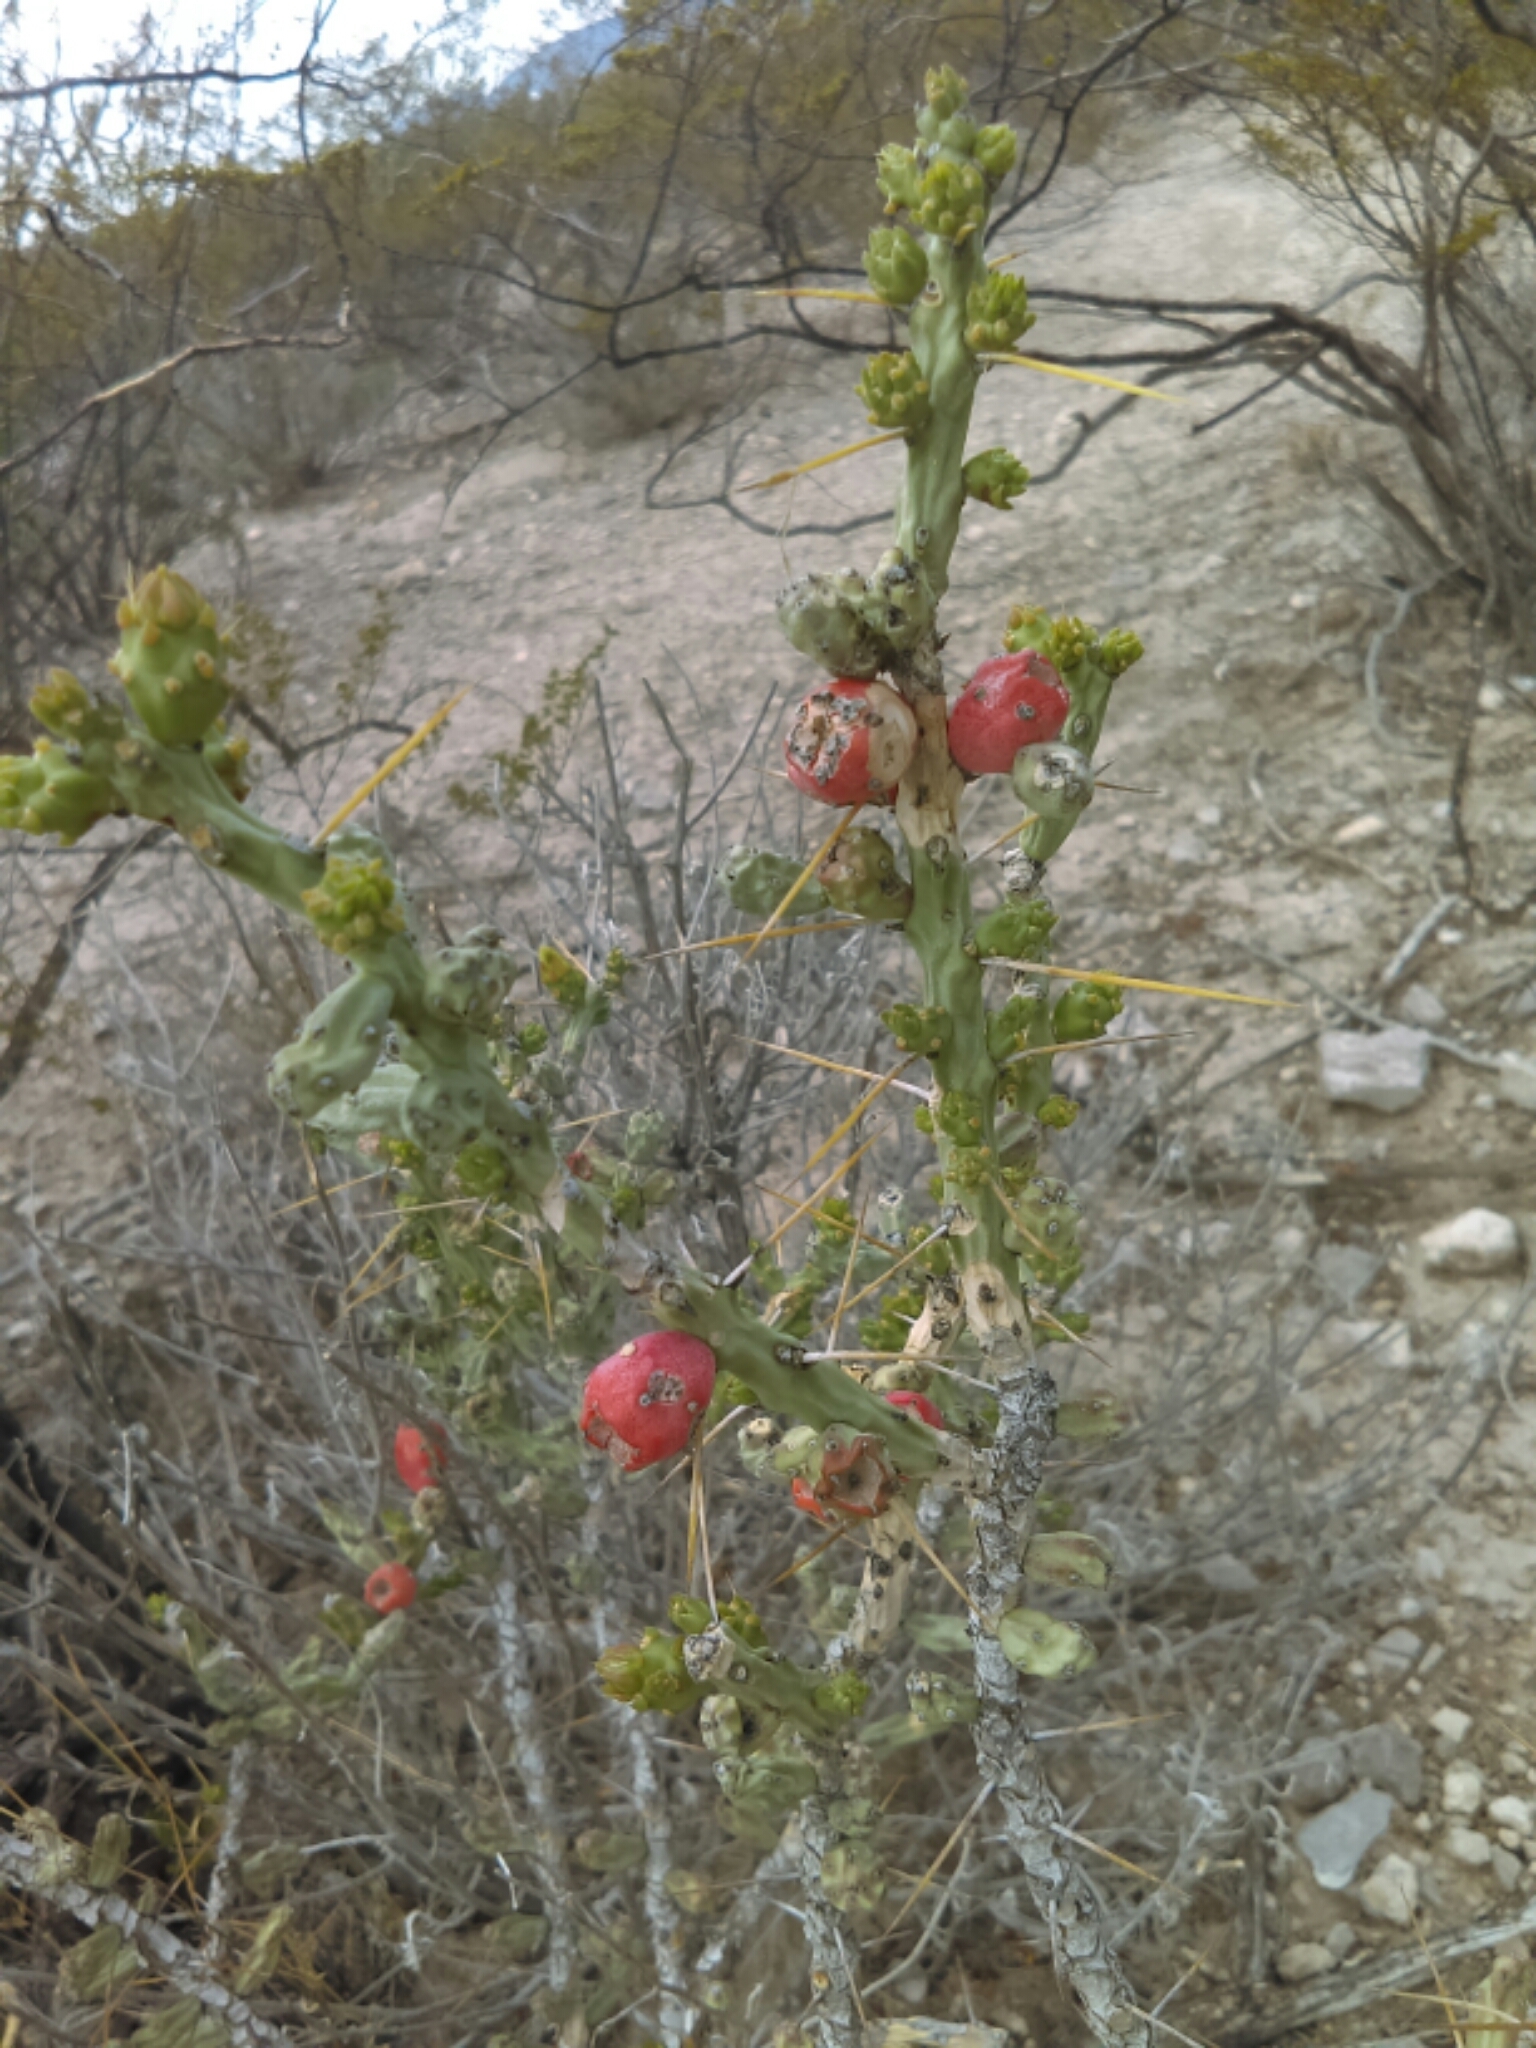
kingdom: Plantae
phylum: Tracheophyta
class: Magnoliopsida
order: Caryophyllales
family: Cactaceae
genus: Cylindropuntia
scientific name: Cylindropuntia leptocaulis
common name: Christmas cactus
